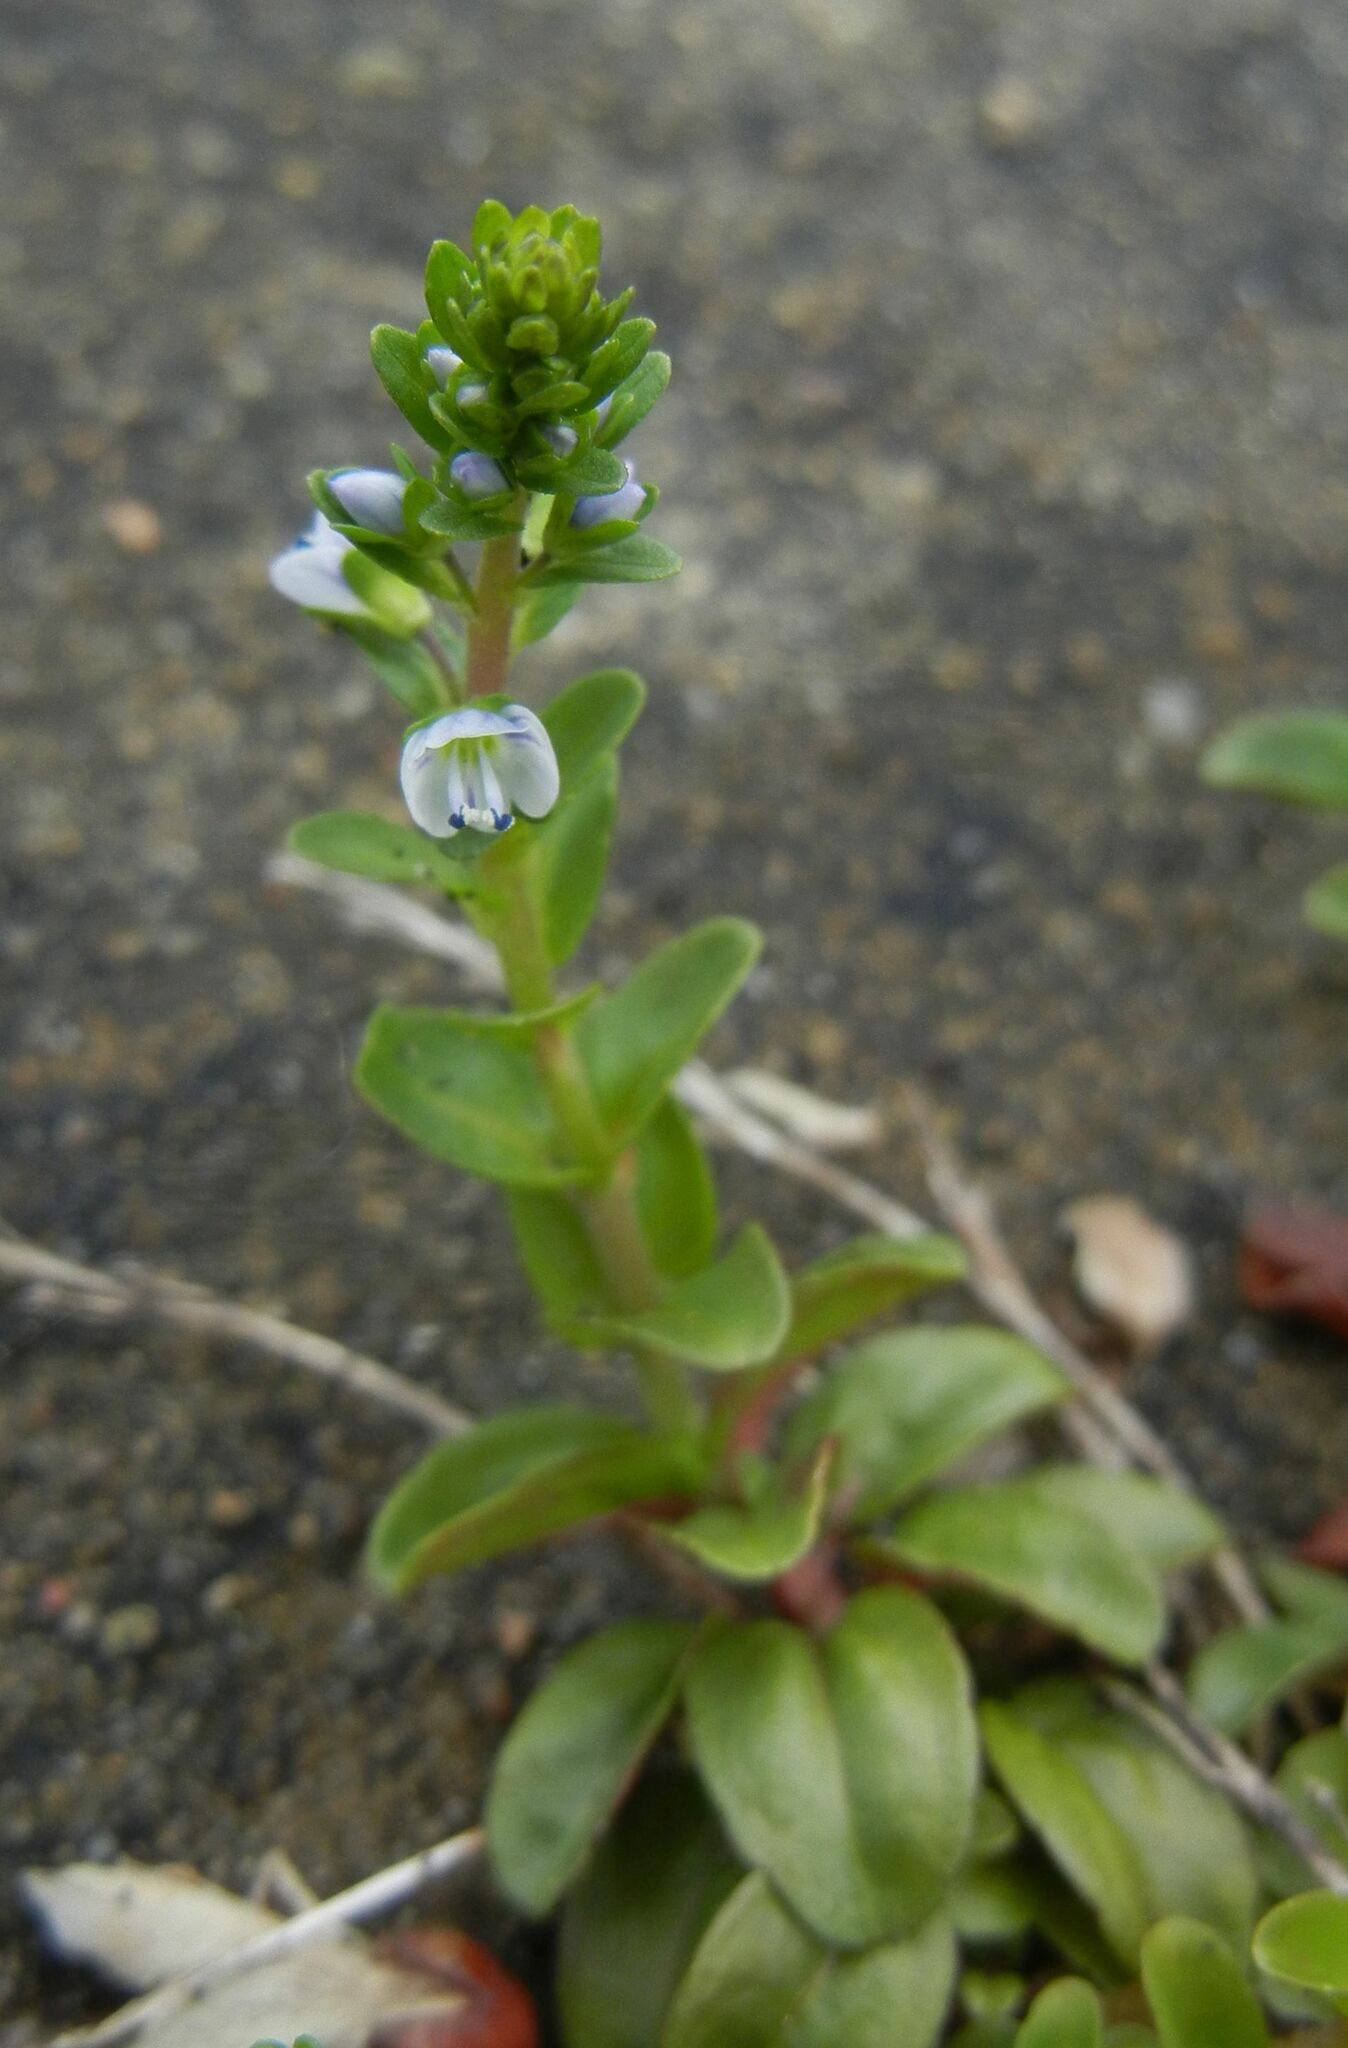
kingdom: Plantae
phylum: Tracheophyta
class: Magnoliopsida
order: Lamiales
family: Plantaginaceae
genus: Veronica
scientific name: Veronica serpyllifolia
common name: Thyme-leaved speedwell
